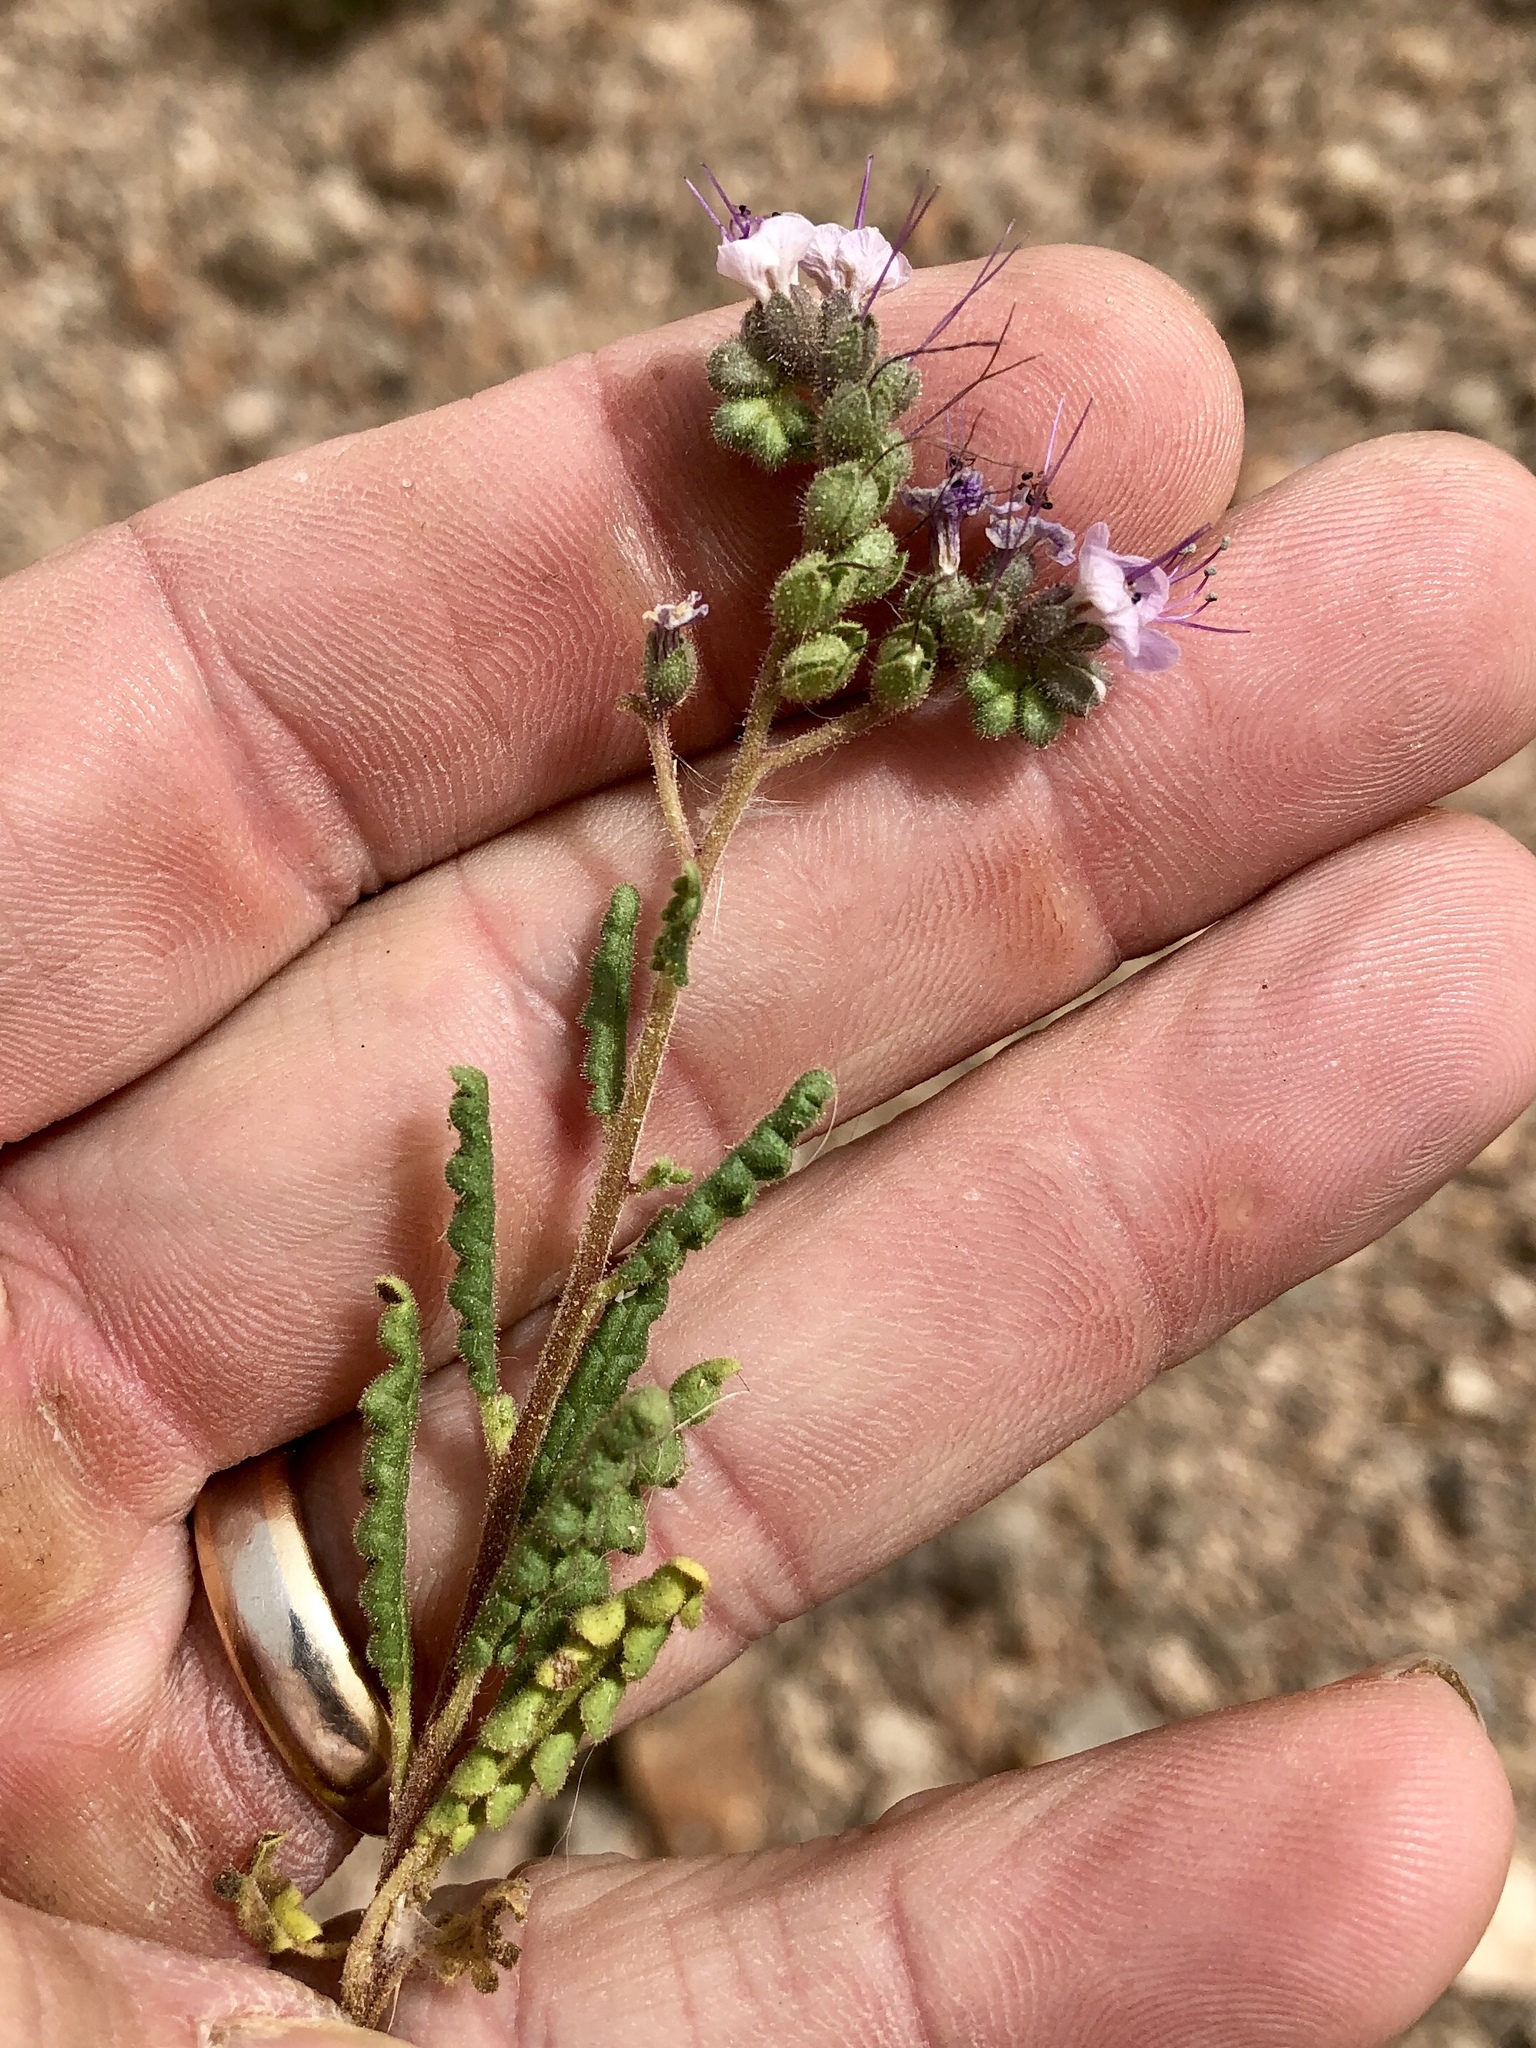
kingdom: Plantae
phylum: Tracheophyta
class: Magnoliopsida
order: Boraginales
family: Hydrophyllaceae
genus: Phacelia
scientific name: Phacelia integrifolia
